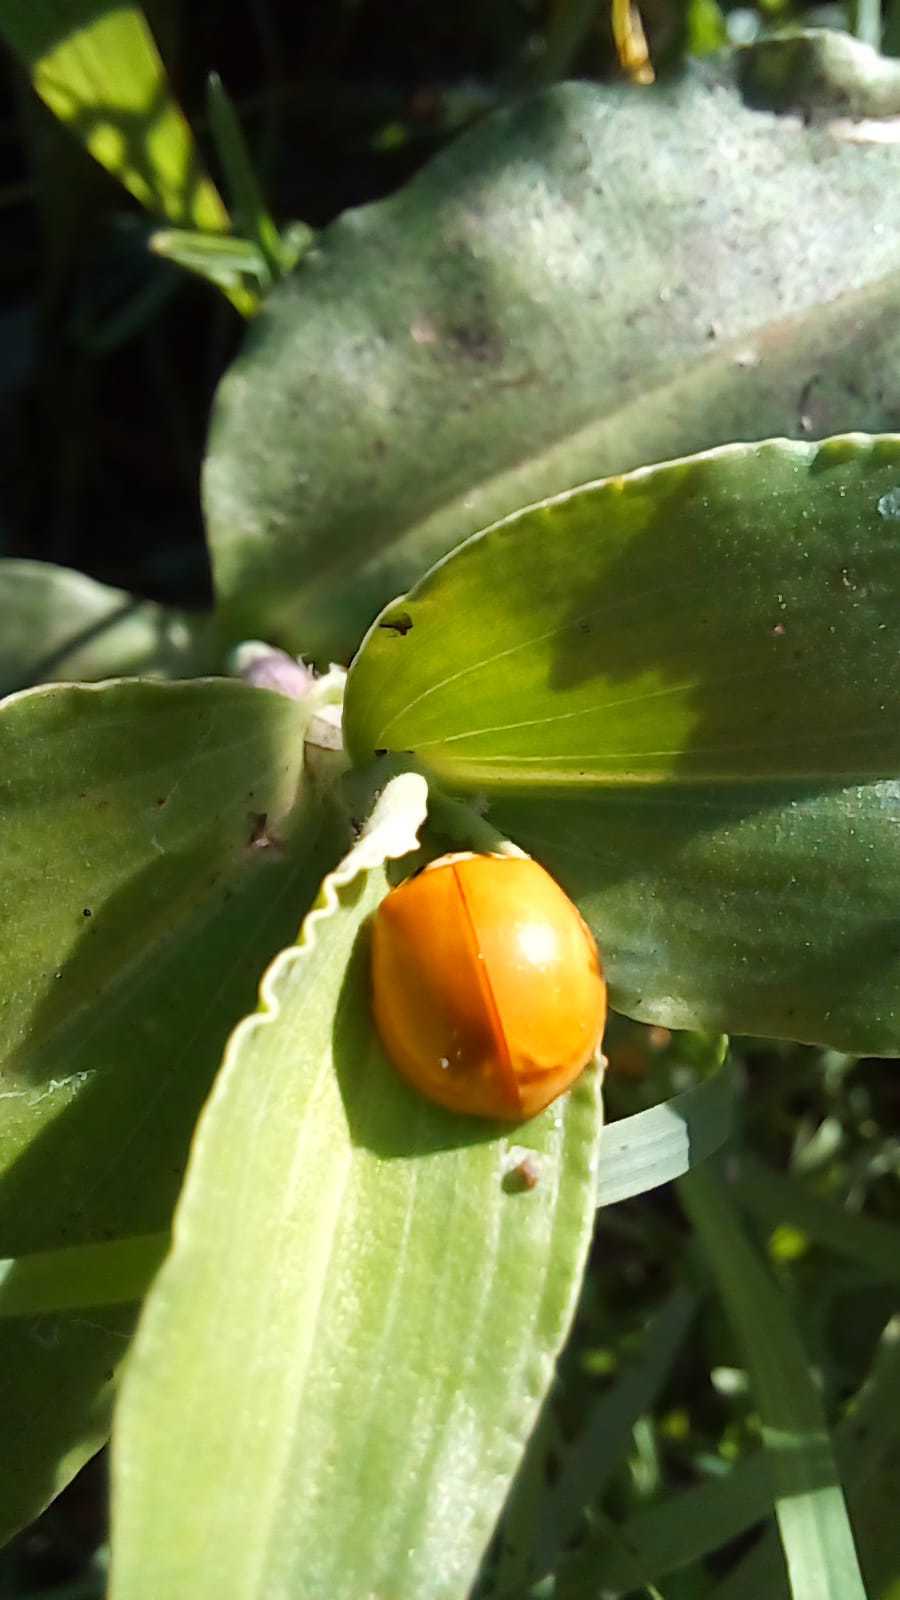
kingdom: Animalia
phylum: Arthropoda
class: Insecta
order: Coleoptera
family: Coccinellidae
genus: Harmonia
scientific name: Harmonia axyridis
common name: Harlequin ladybird
